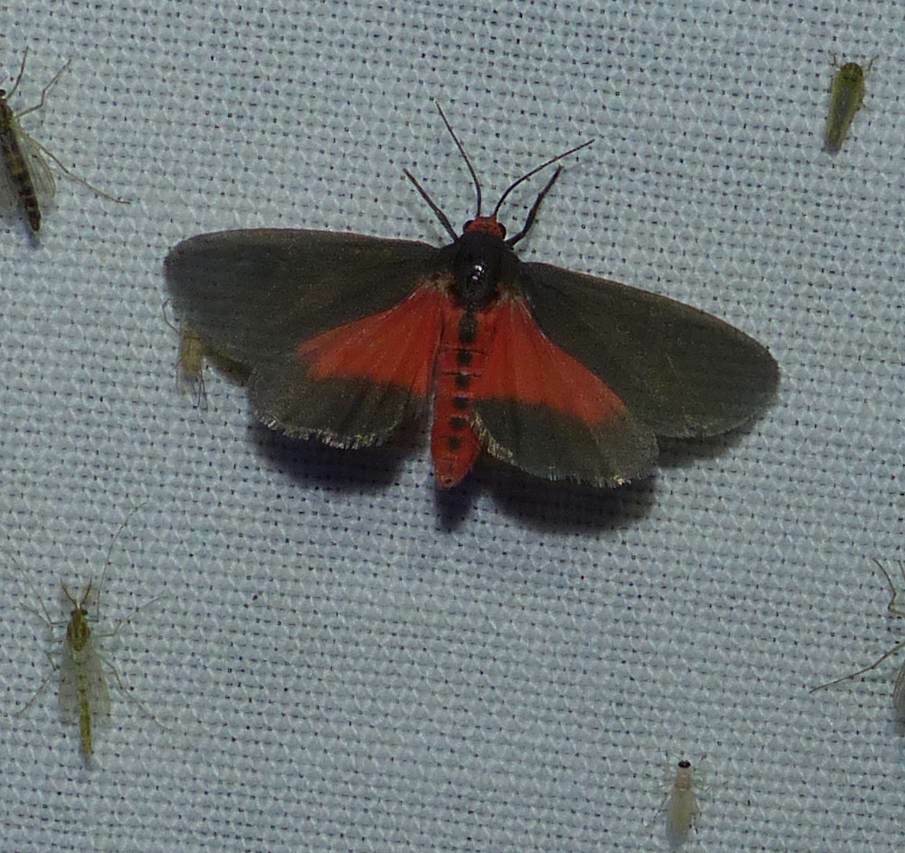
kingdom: Animalia
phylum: Arthropoda
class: Insecta
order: Lepidoptera
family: Erebidae
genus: Virbia
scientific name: Virbia laeta
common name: Joyful holomelina moth
